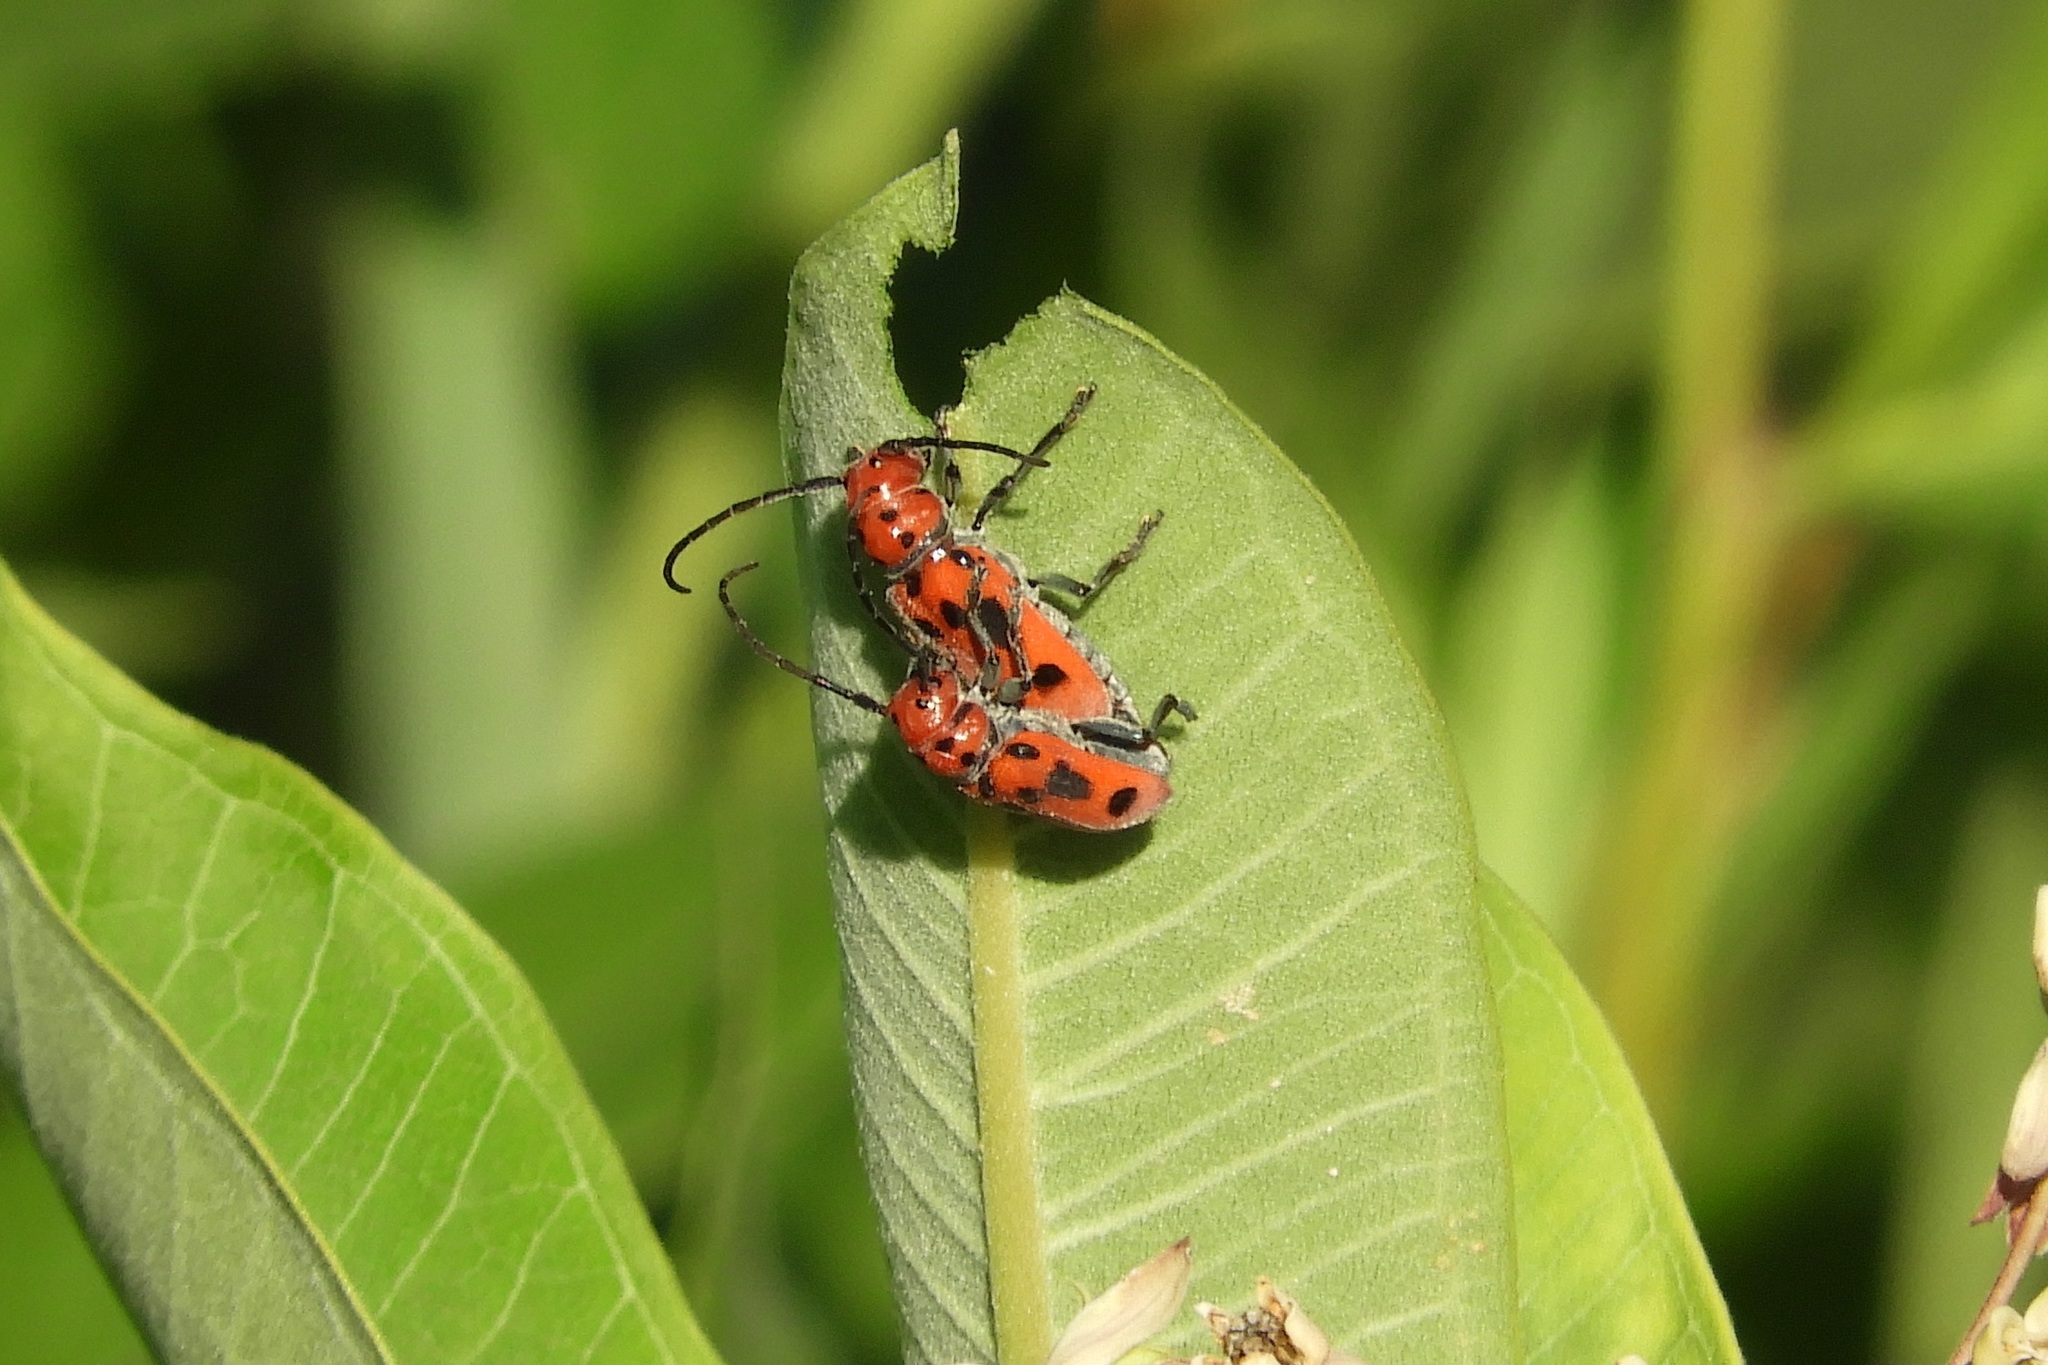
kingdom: Animalia
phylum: Arthropoda
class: Insecta
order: Coleoptera
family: Cerambycidae
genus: Tetraopes
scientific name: Tetraopes tetrophthalmus
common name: Red milkweed beetle
